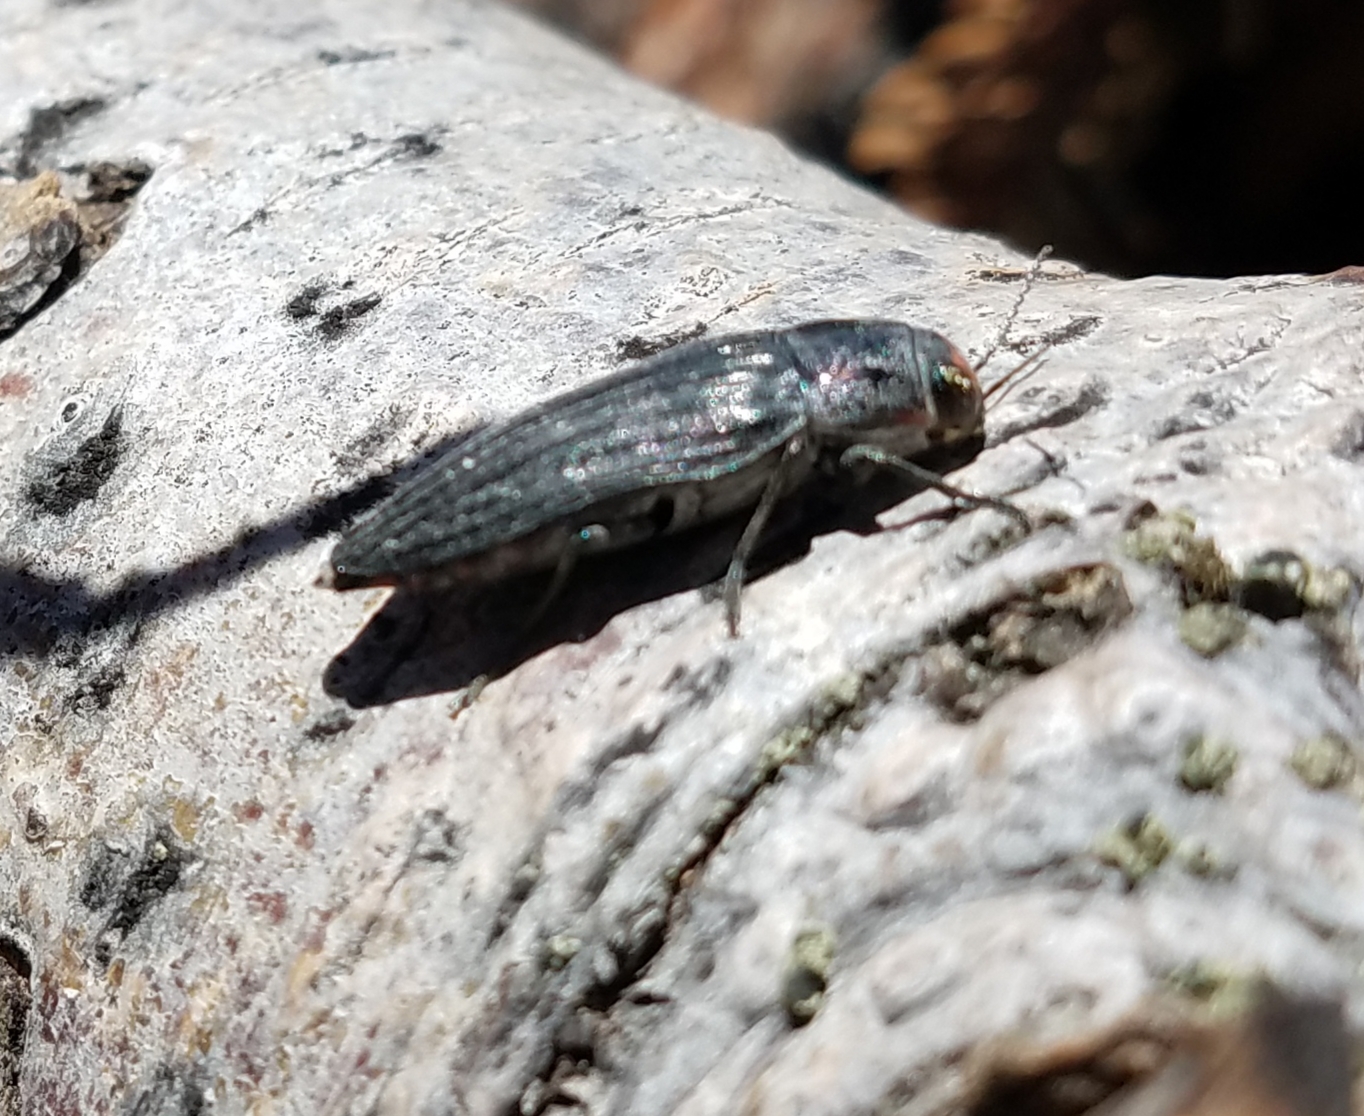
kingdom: Animalia
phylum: Arthropoda
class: Insecta
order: Coleoptera
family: Buprestidae
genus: Buprestis
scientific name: Buprestis lyrata
